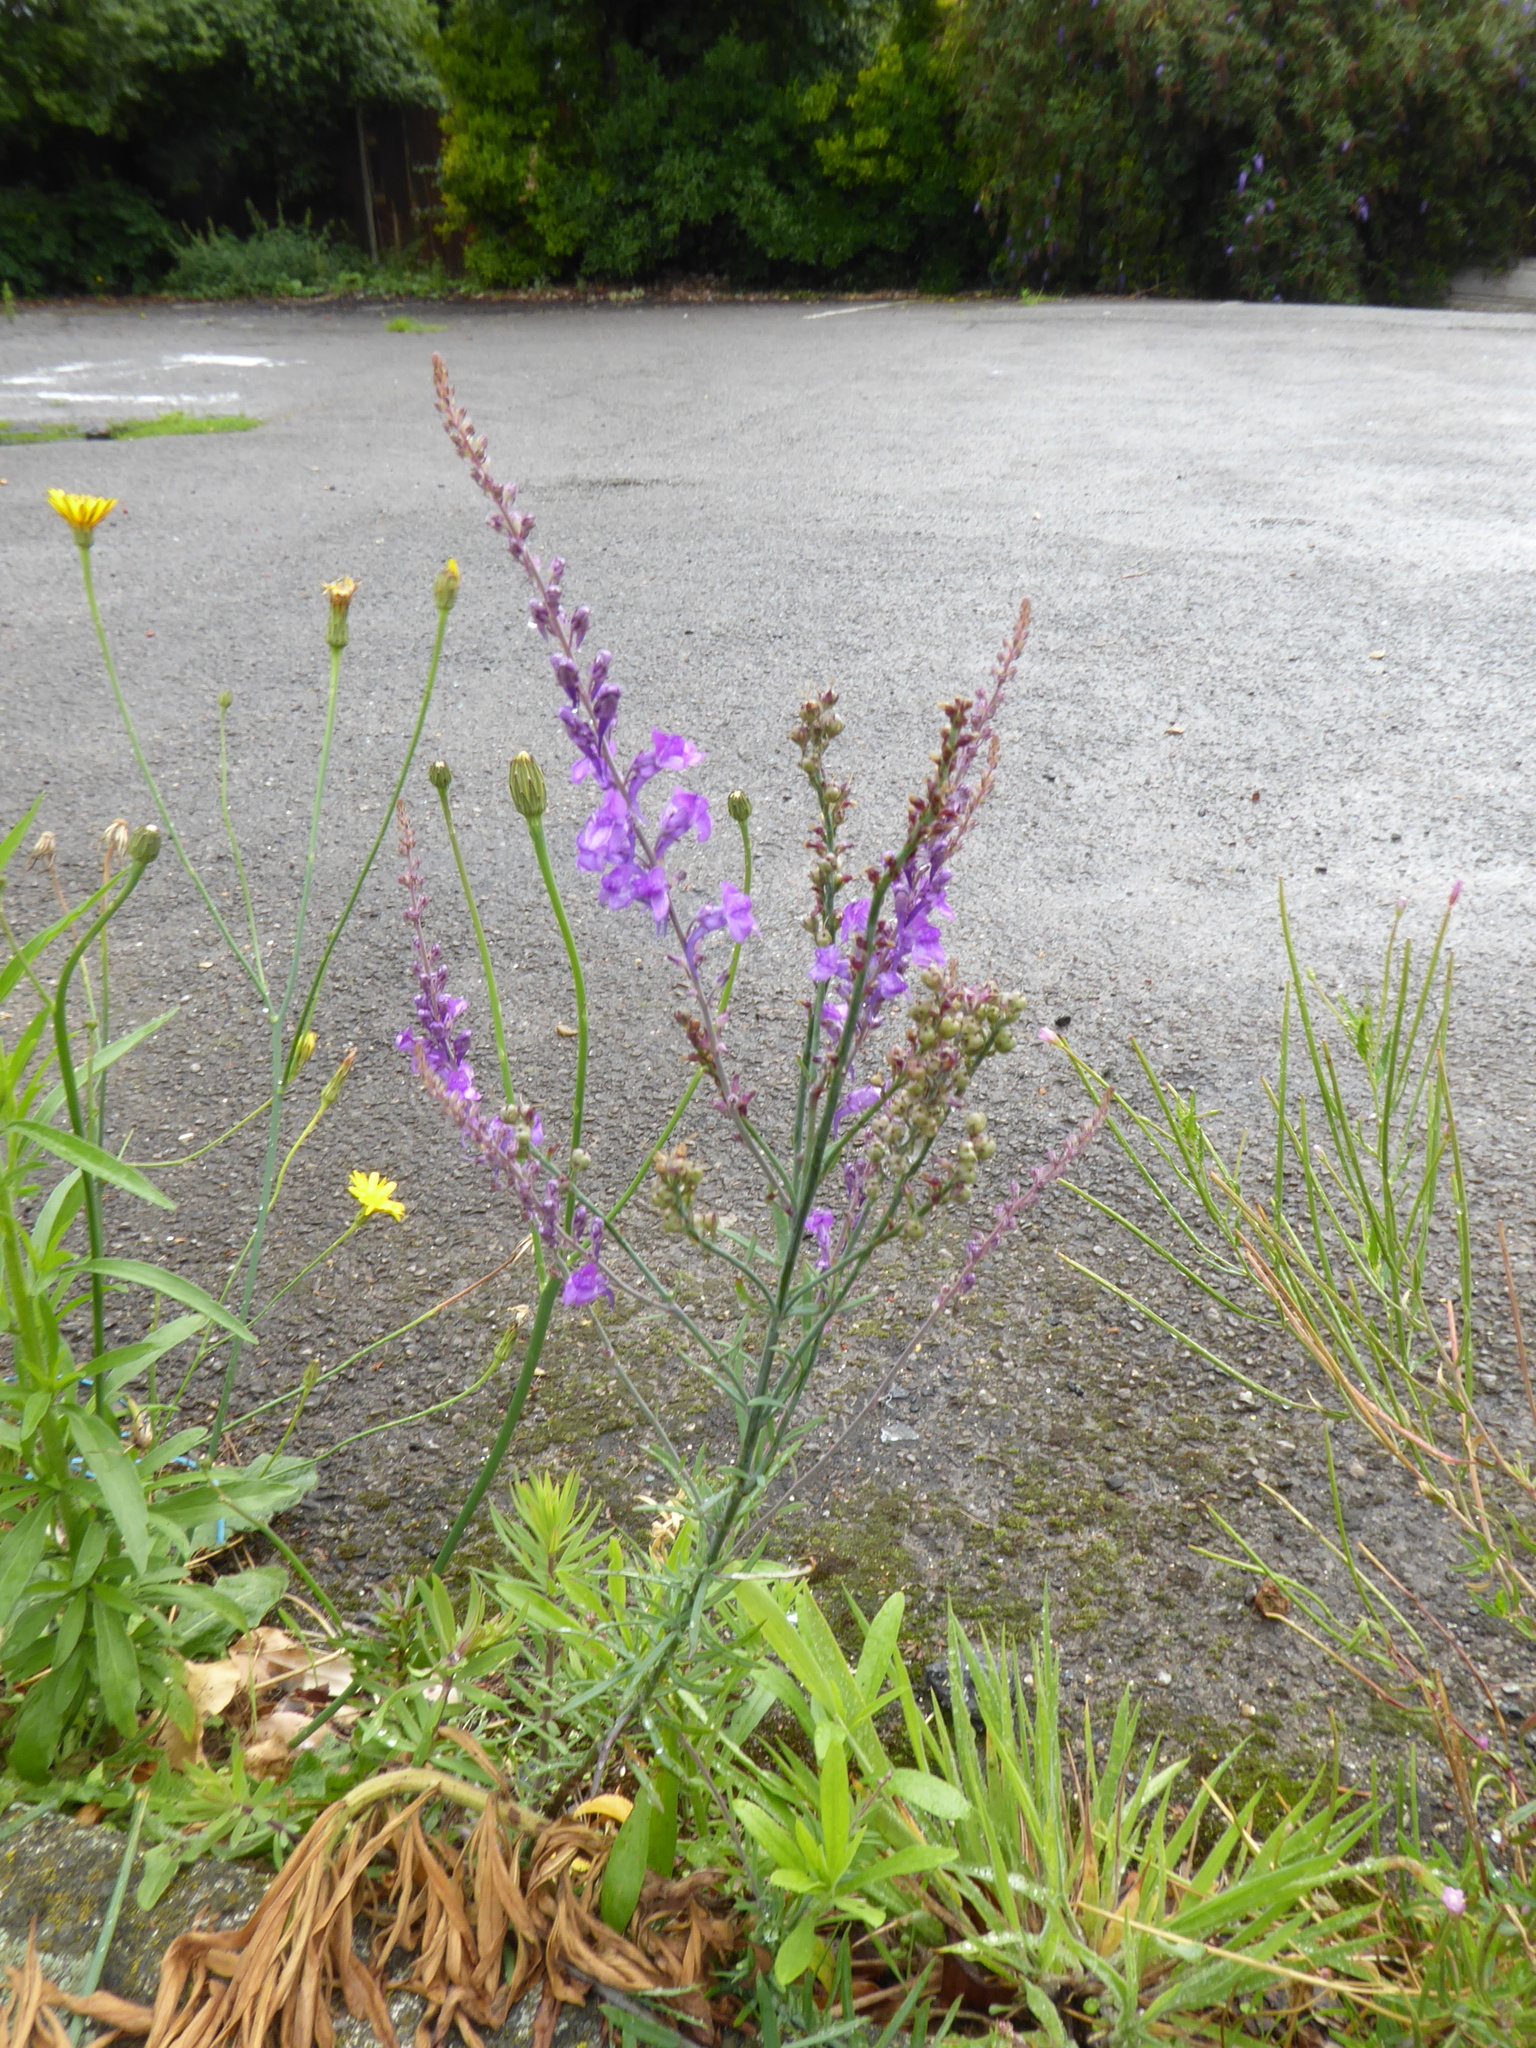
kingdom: Plantae
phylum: Tracheophyta
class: Magnoliopsida
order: Lamiales
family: Plantaginaceae
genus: Linaria
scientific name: Linaria purpurea
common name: Purple toadflax
